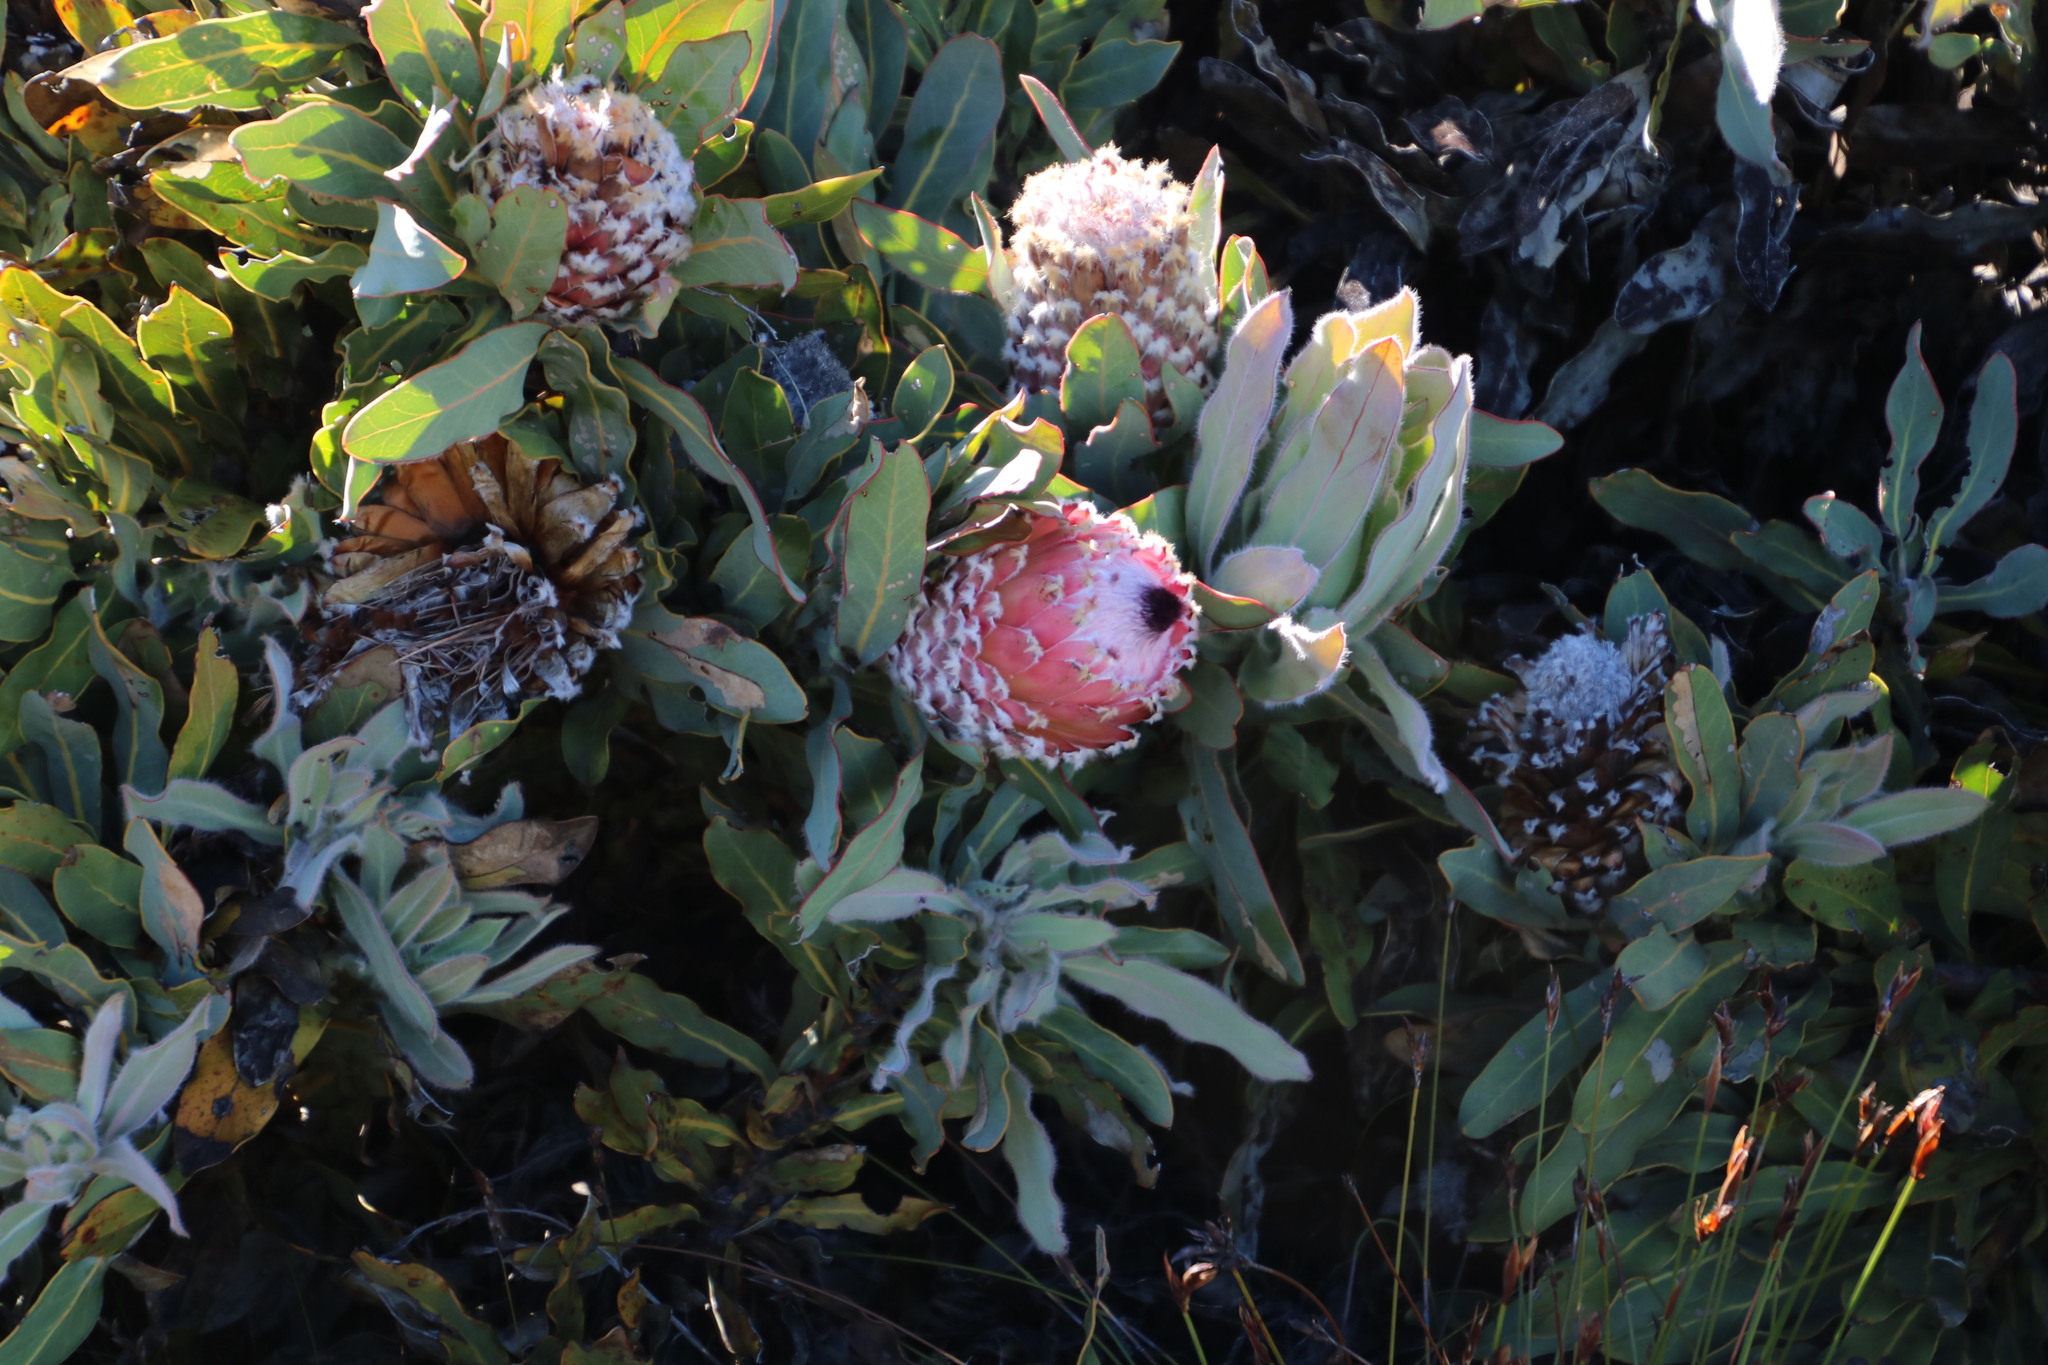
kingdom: Plantae
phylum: Tracheophyta
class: Magnoliopsida
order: Proteales
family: Proteaceae
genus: Protea
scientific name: Protea magnifica
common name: Bearded sugarbush
